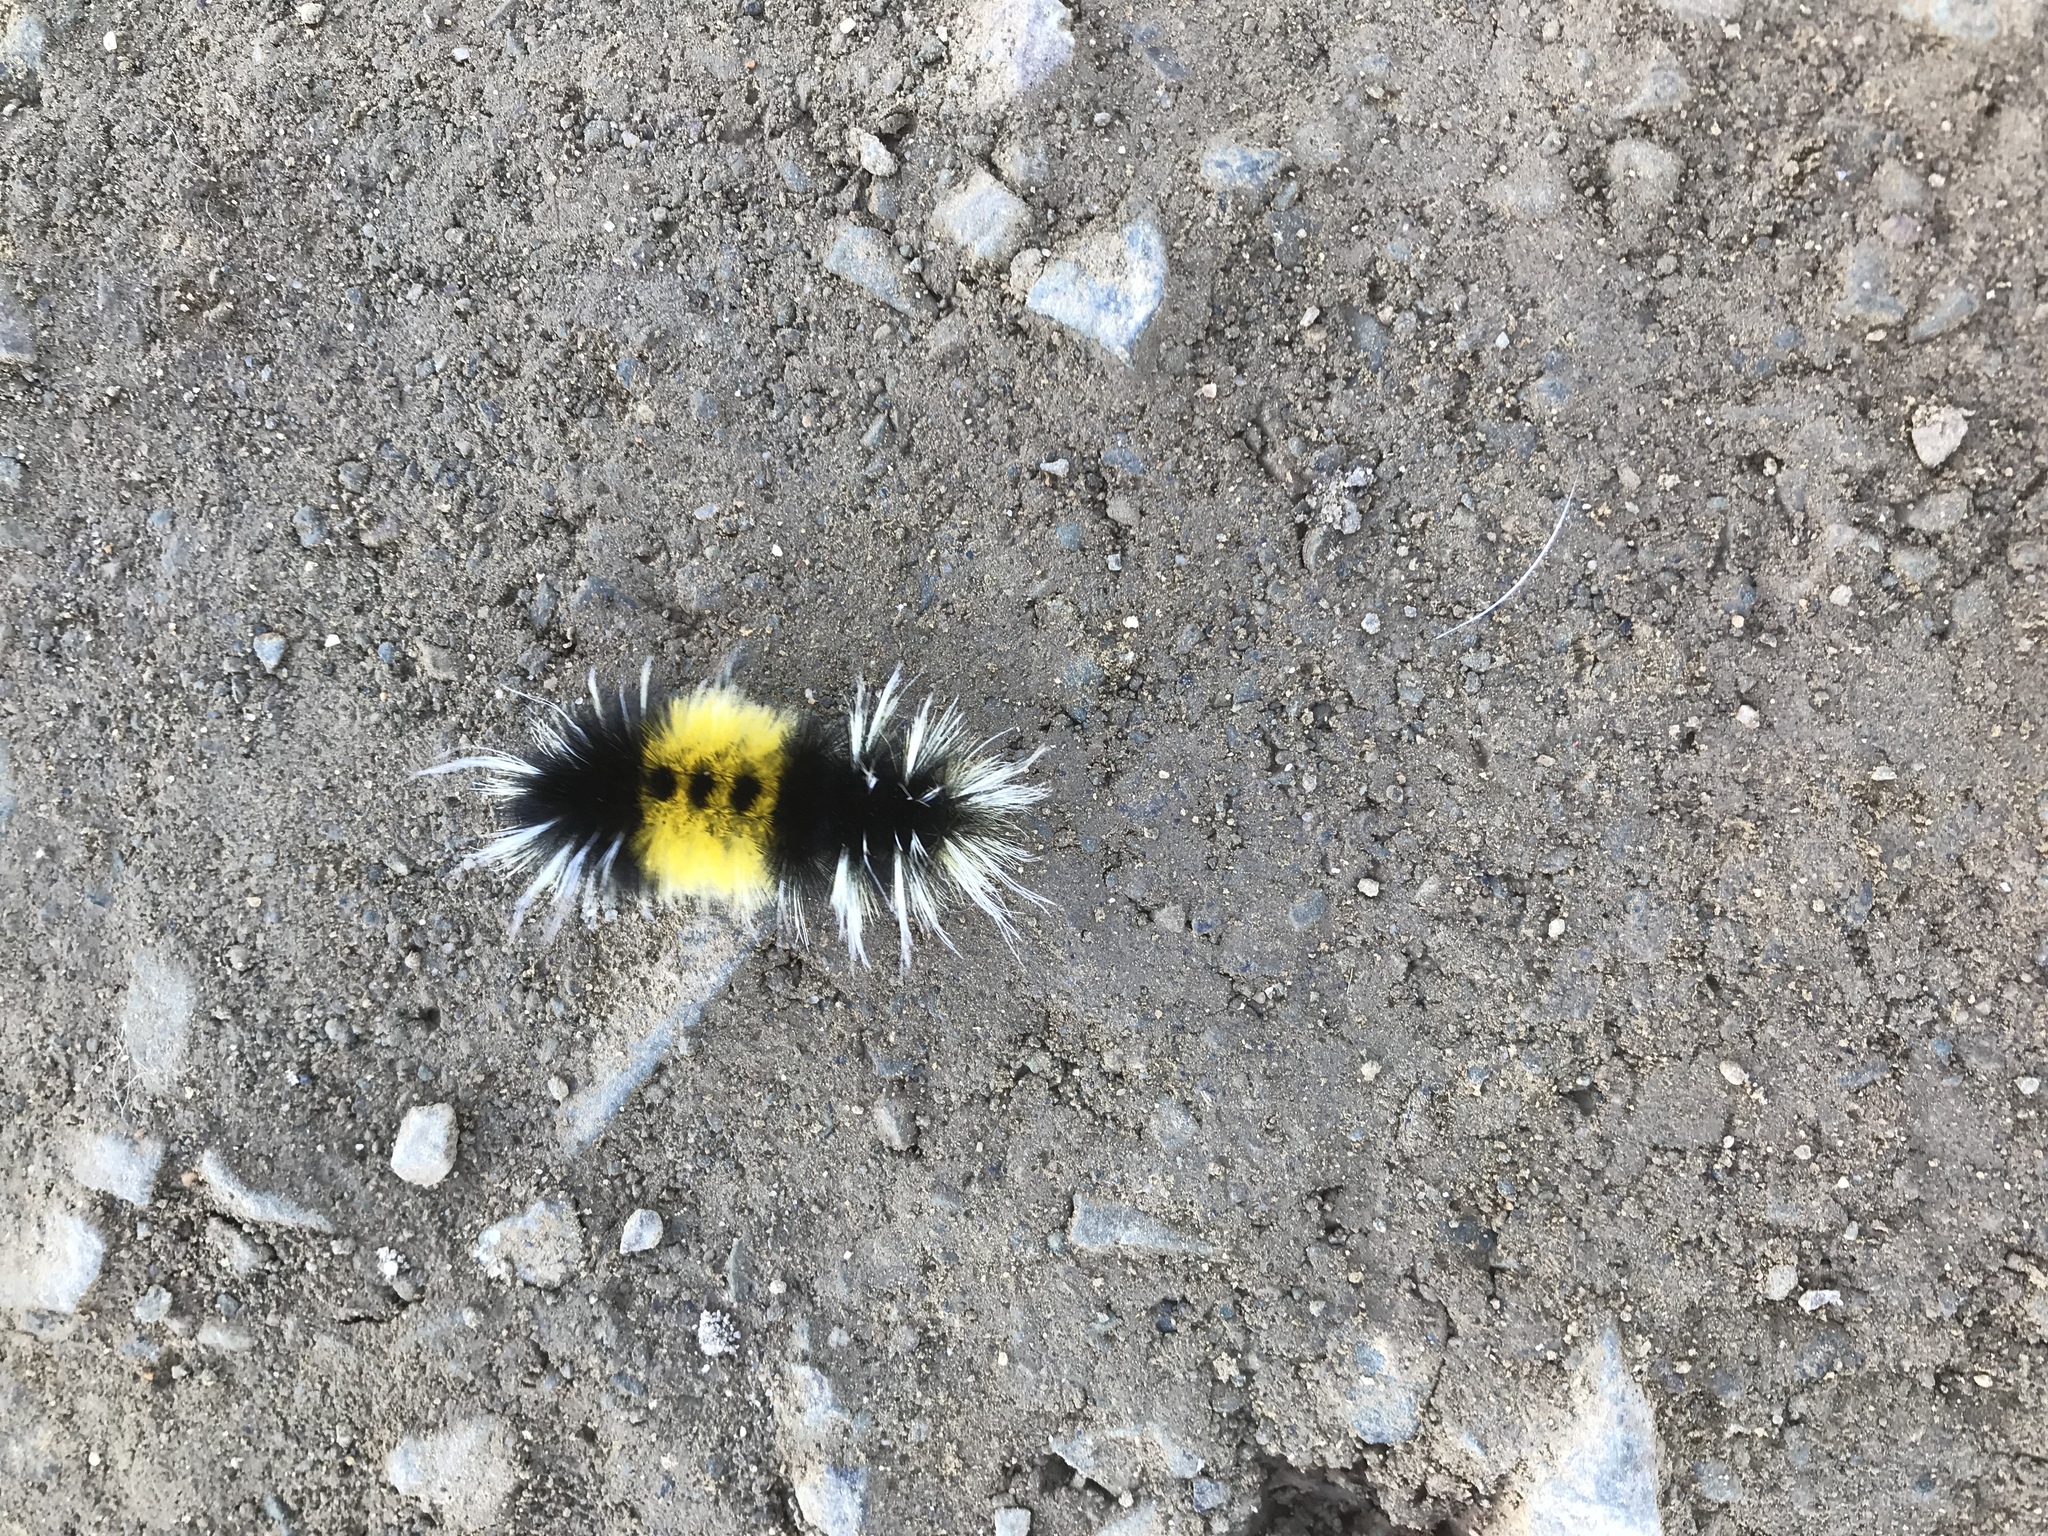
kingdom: Animalia
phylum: Arthropoda
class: Insecta
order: Lepidoptera
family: Erebidae
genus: Lophocampa
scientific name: Lophocampa maculata
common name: Spotted tussock moth
